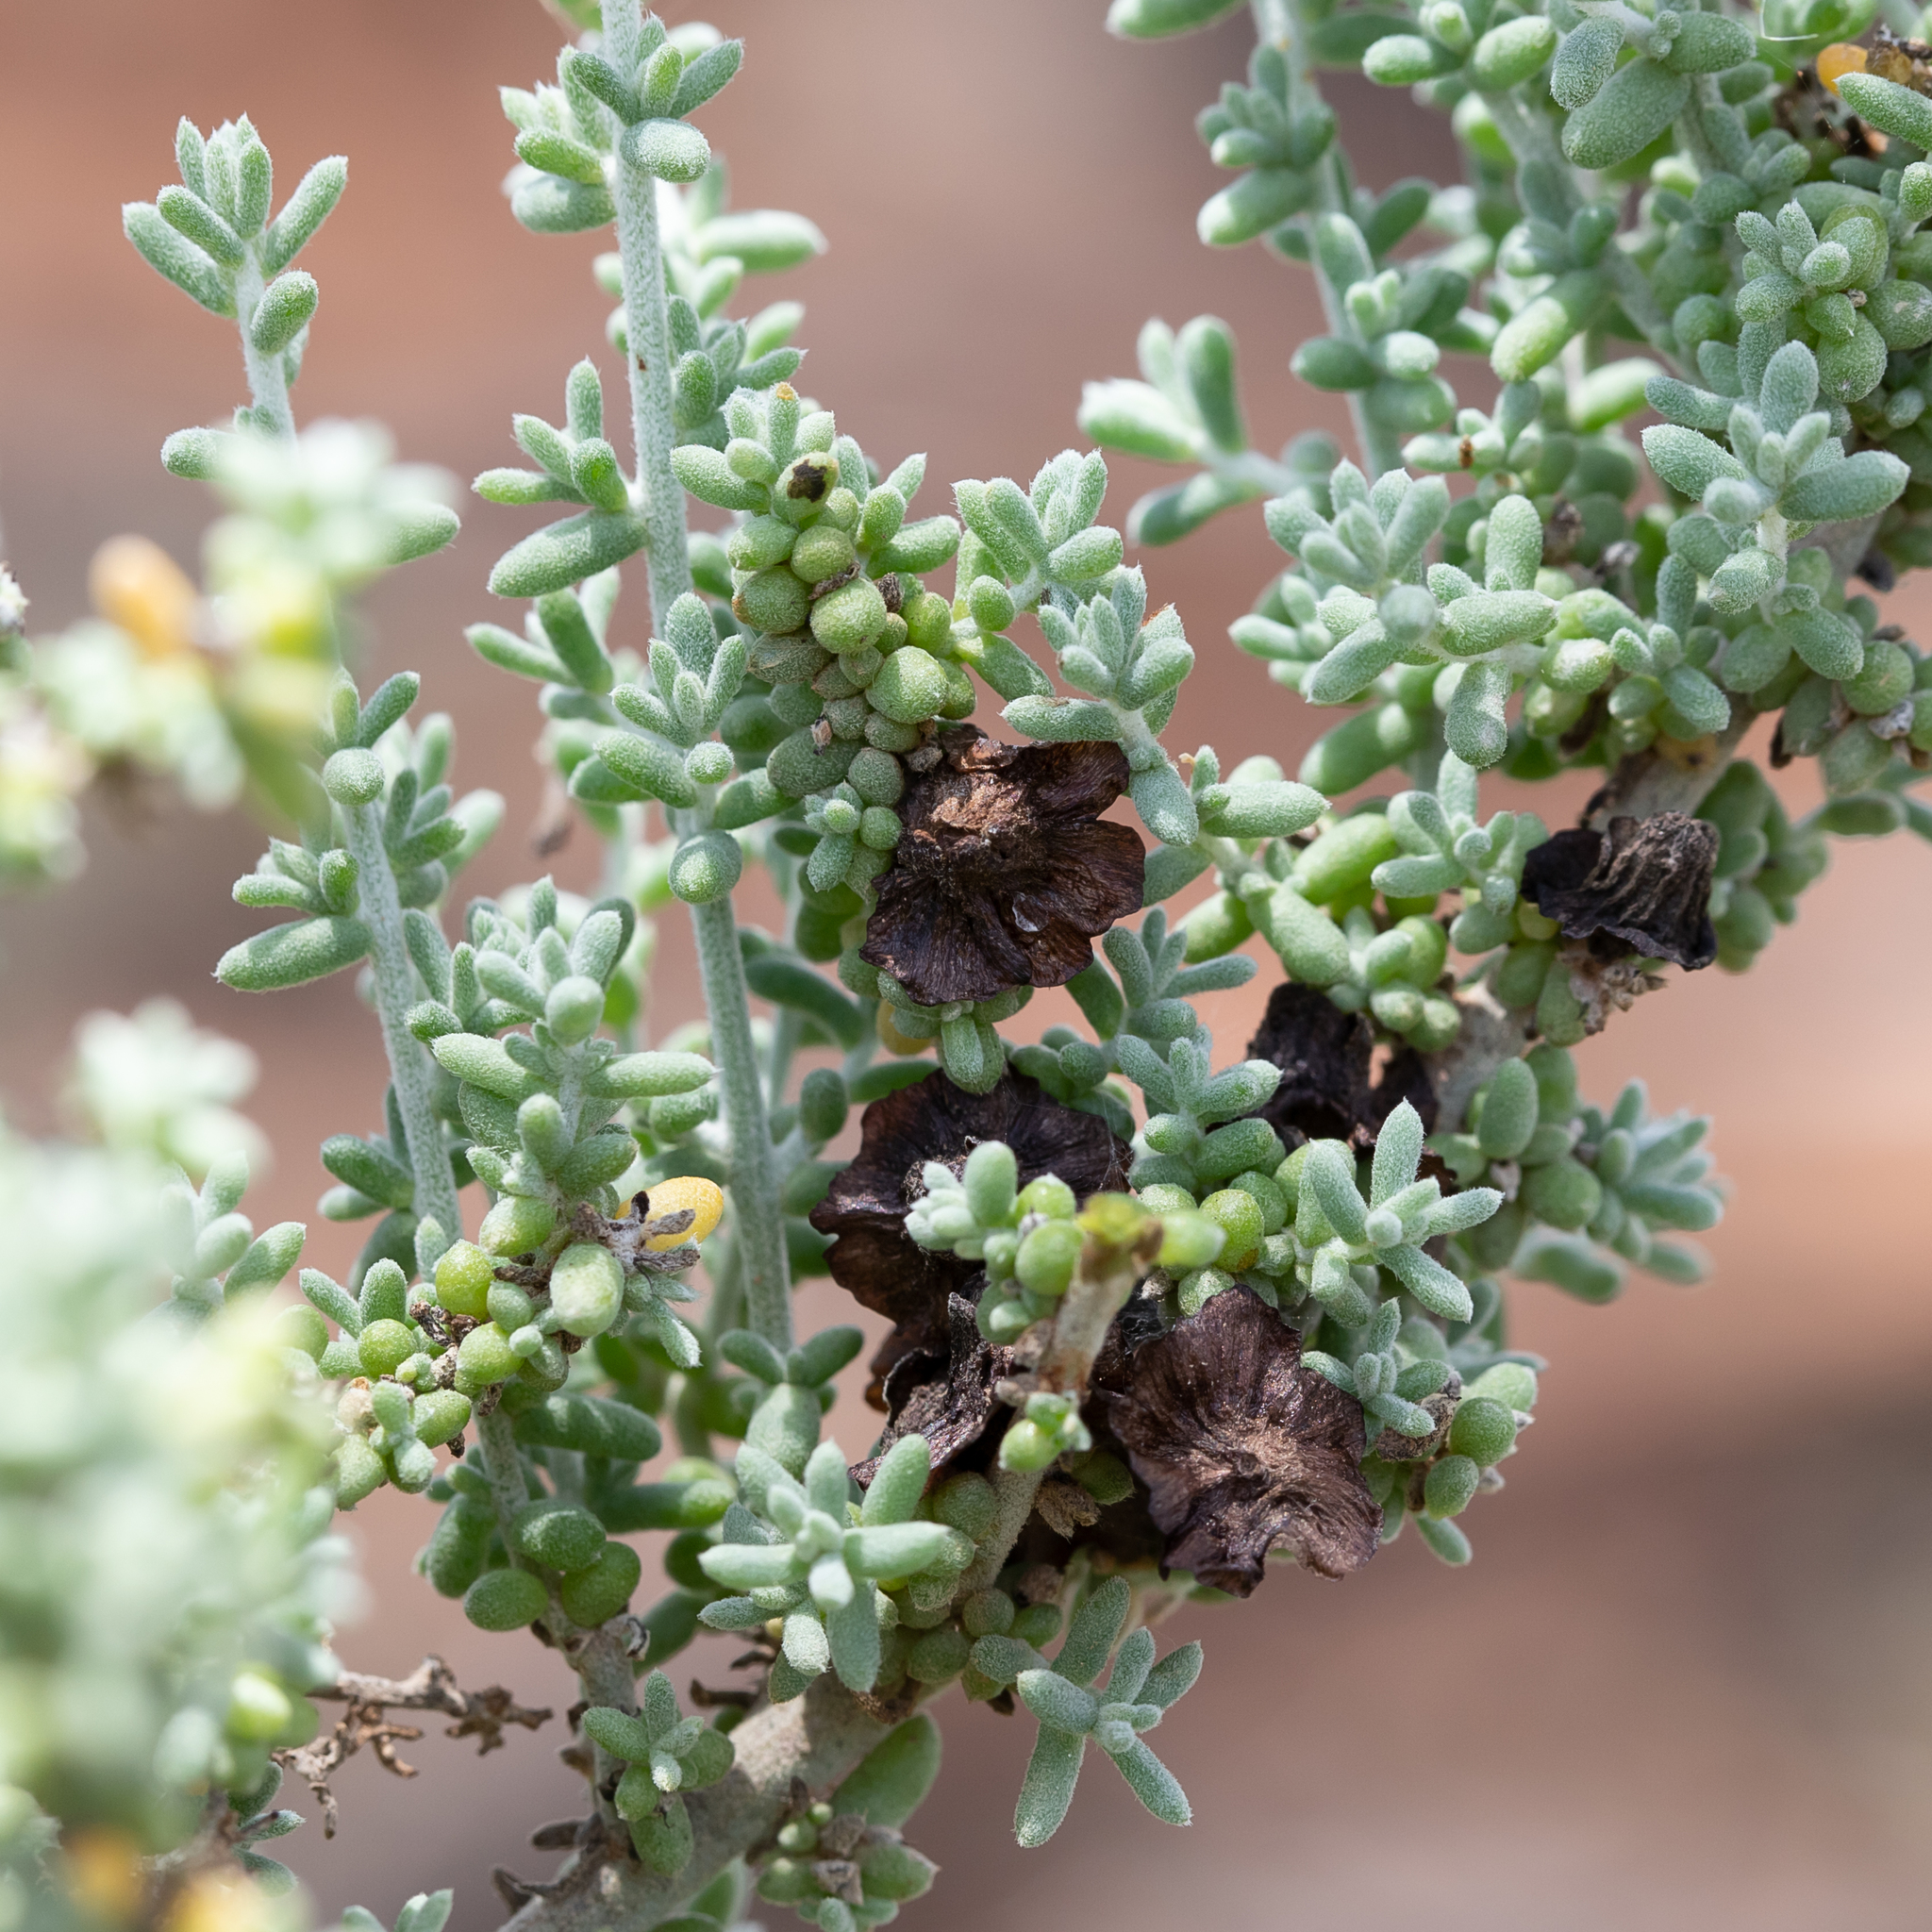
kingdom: Plantae
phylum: Tracheophyta
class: Magnoliopsida
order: Caryophyllales
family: Amaranthaceae
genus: Maireana
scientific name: Maireana pyramidata
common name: Sagobush
